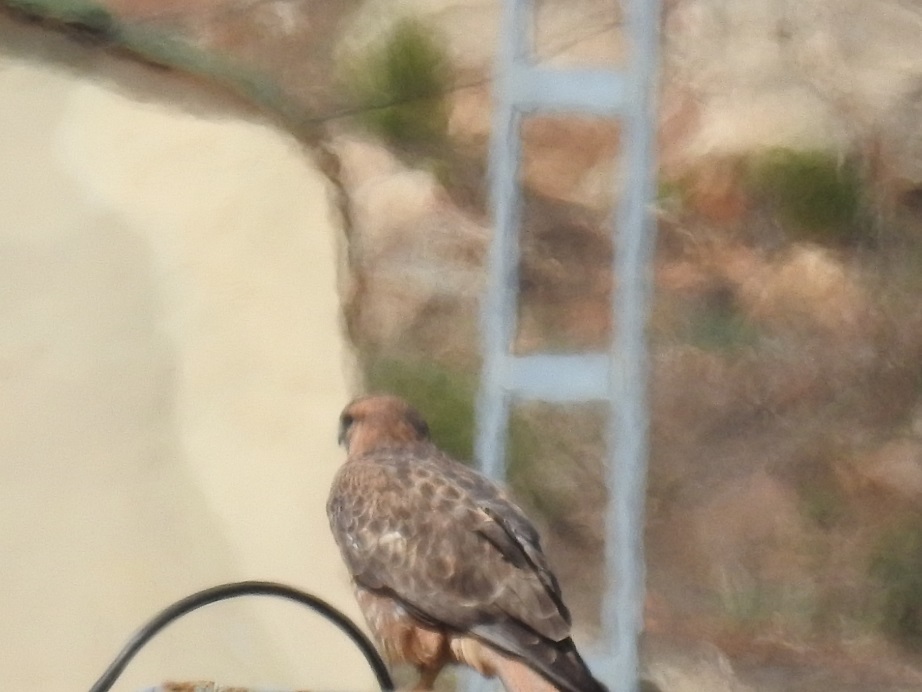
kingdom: Animalia
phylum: Chordata
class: Aves
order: Accipitriformes
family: Accipitridae
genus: Buteo
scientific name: Buteo rufinus
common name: Long-legged buzzard
